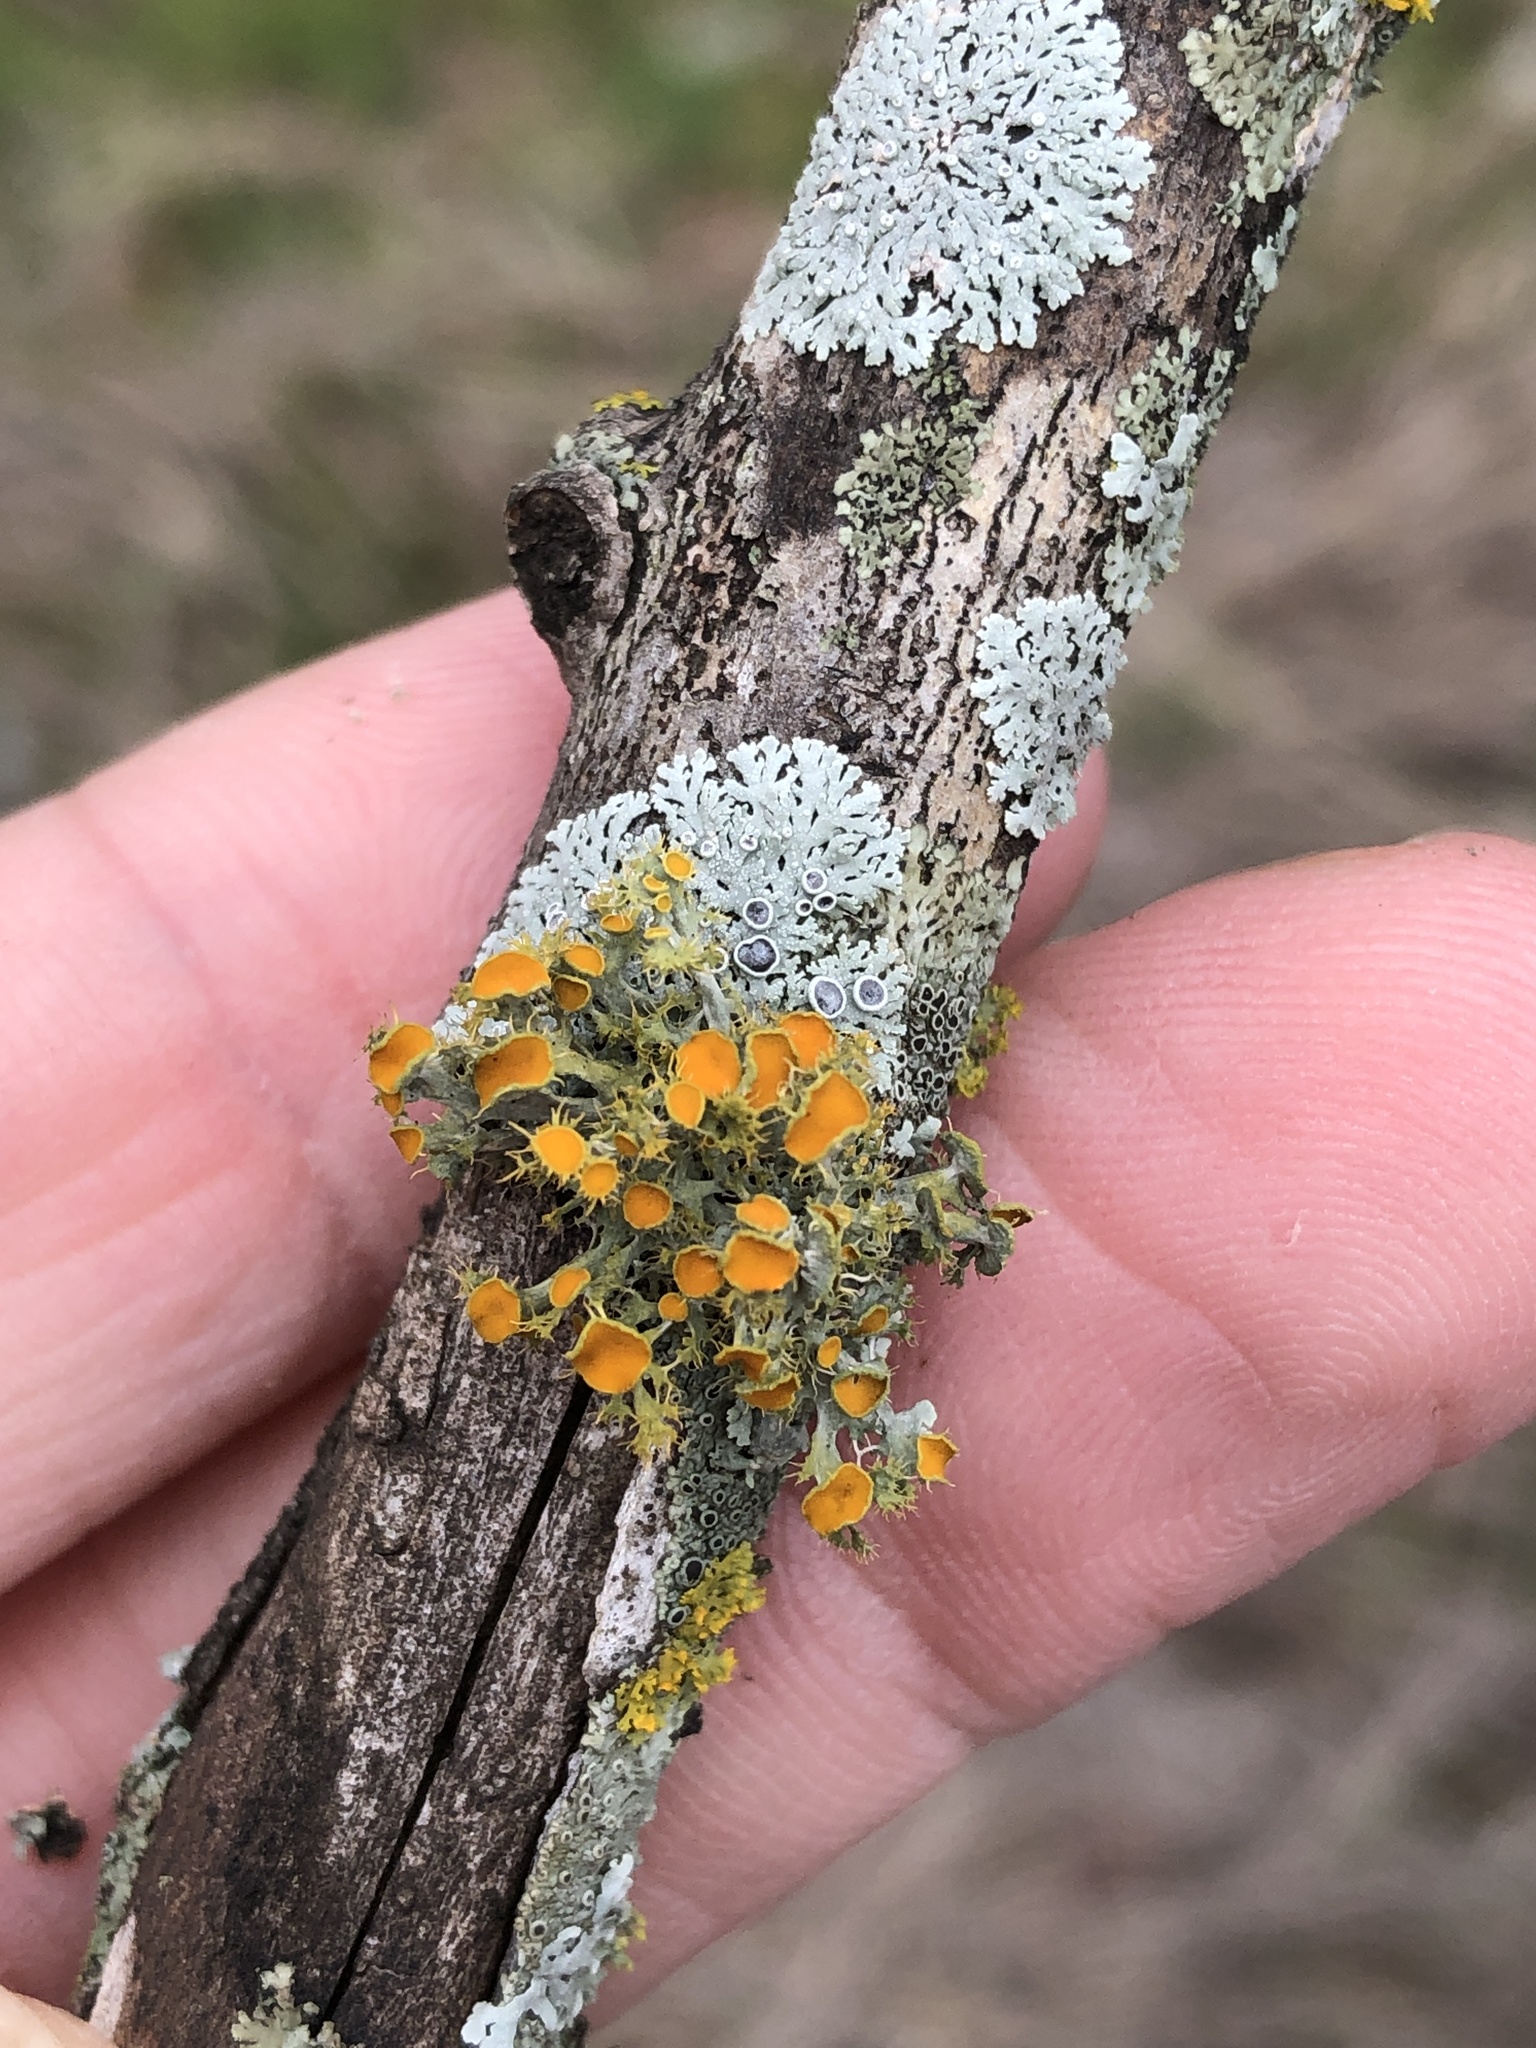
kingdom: Fungi
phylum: Ascomycota
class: Lecanoromycetes
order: Teloschistales
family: Teloschistaceae
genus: Niorma
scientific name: Niorma chrysophthalma
